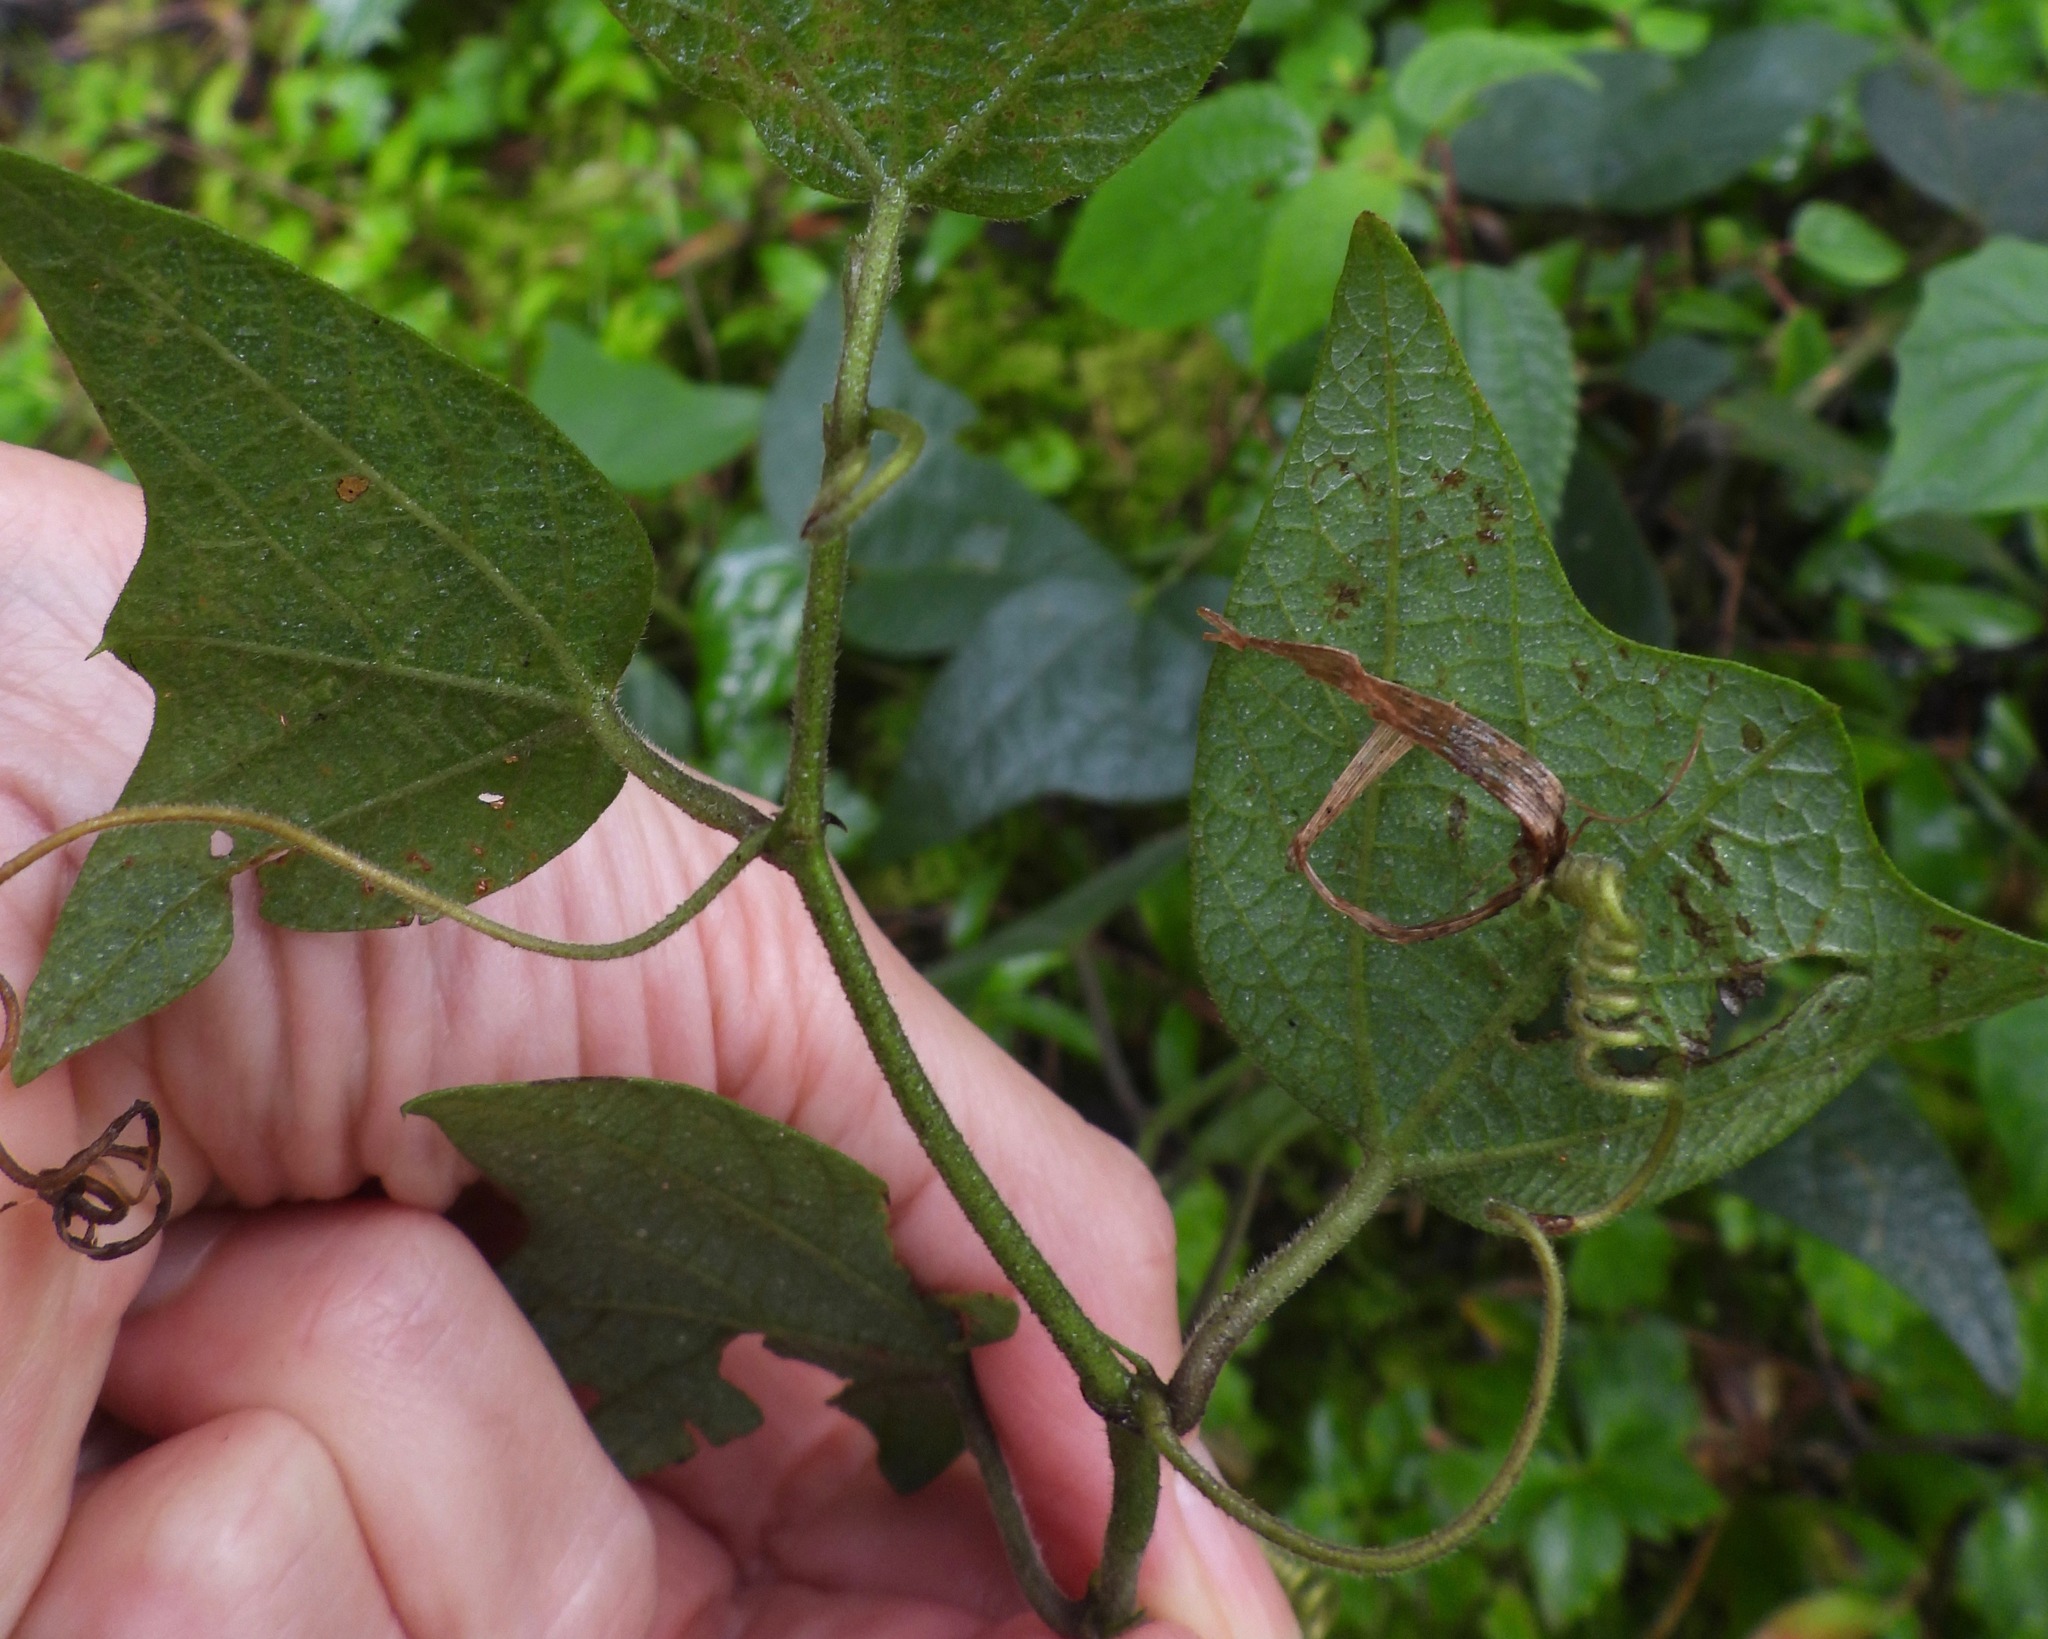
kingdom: Plantae
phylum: Tracheophyta
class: Magnoliopsida
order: Malpighiales
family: Passifloraceae
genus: Passiflora
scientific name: Passiflora sexflora
